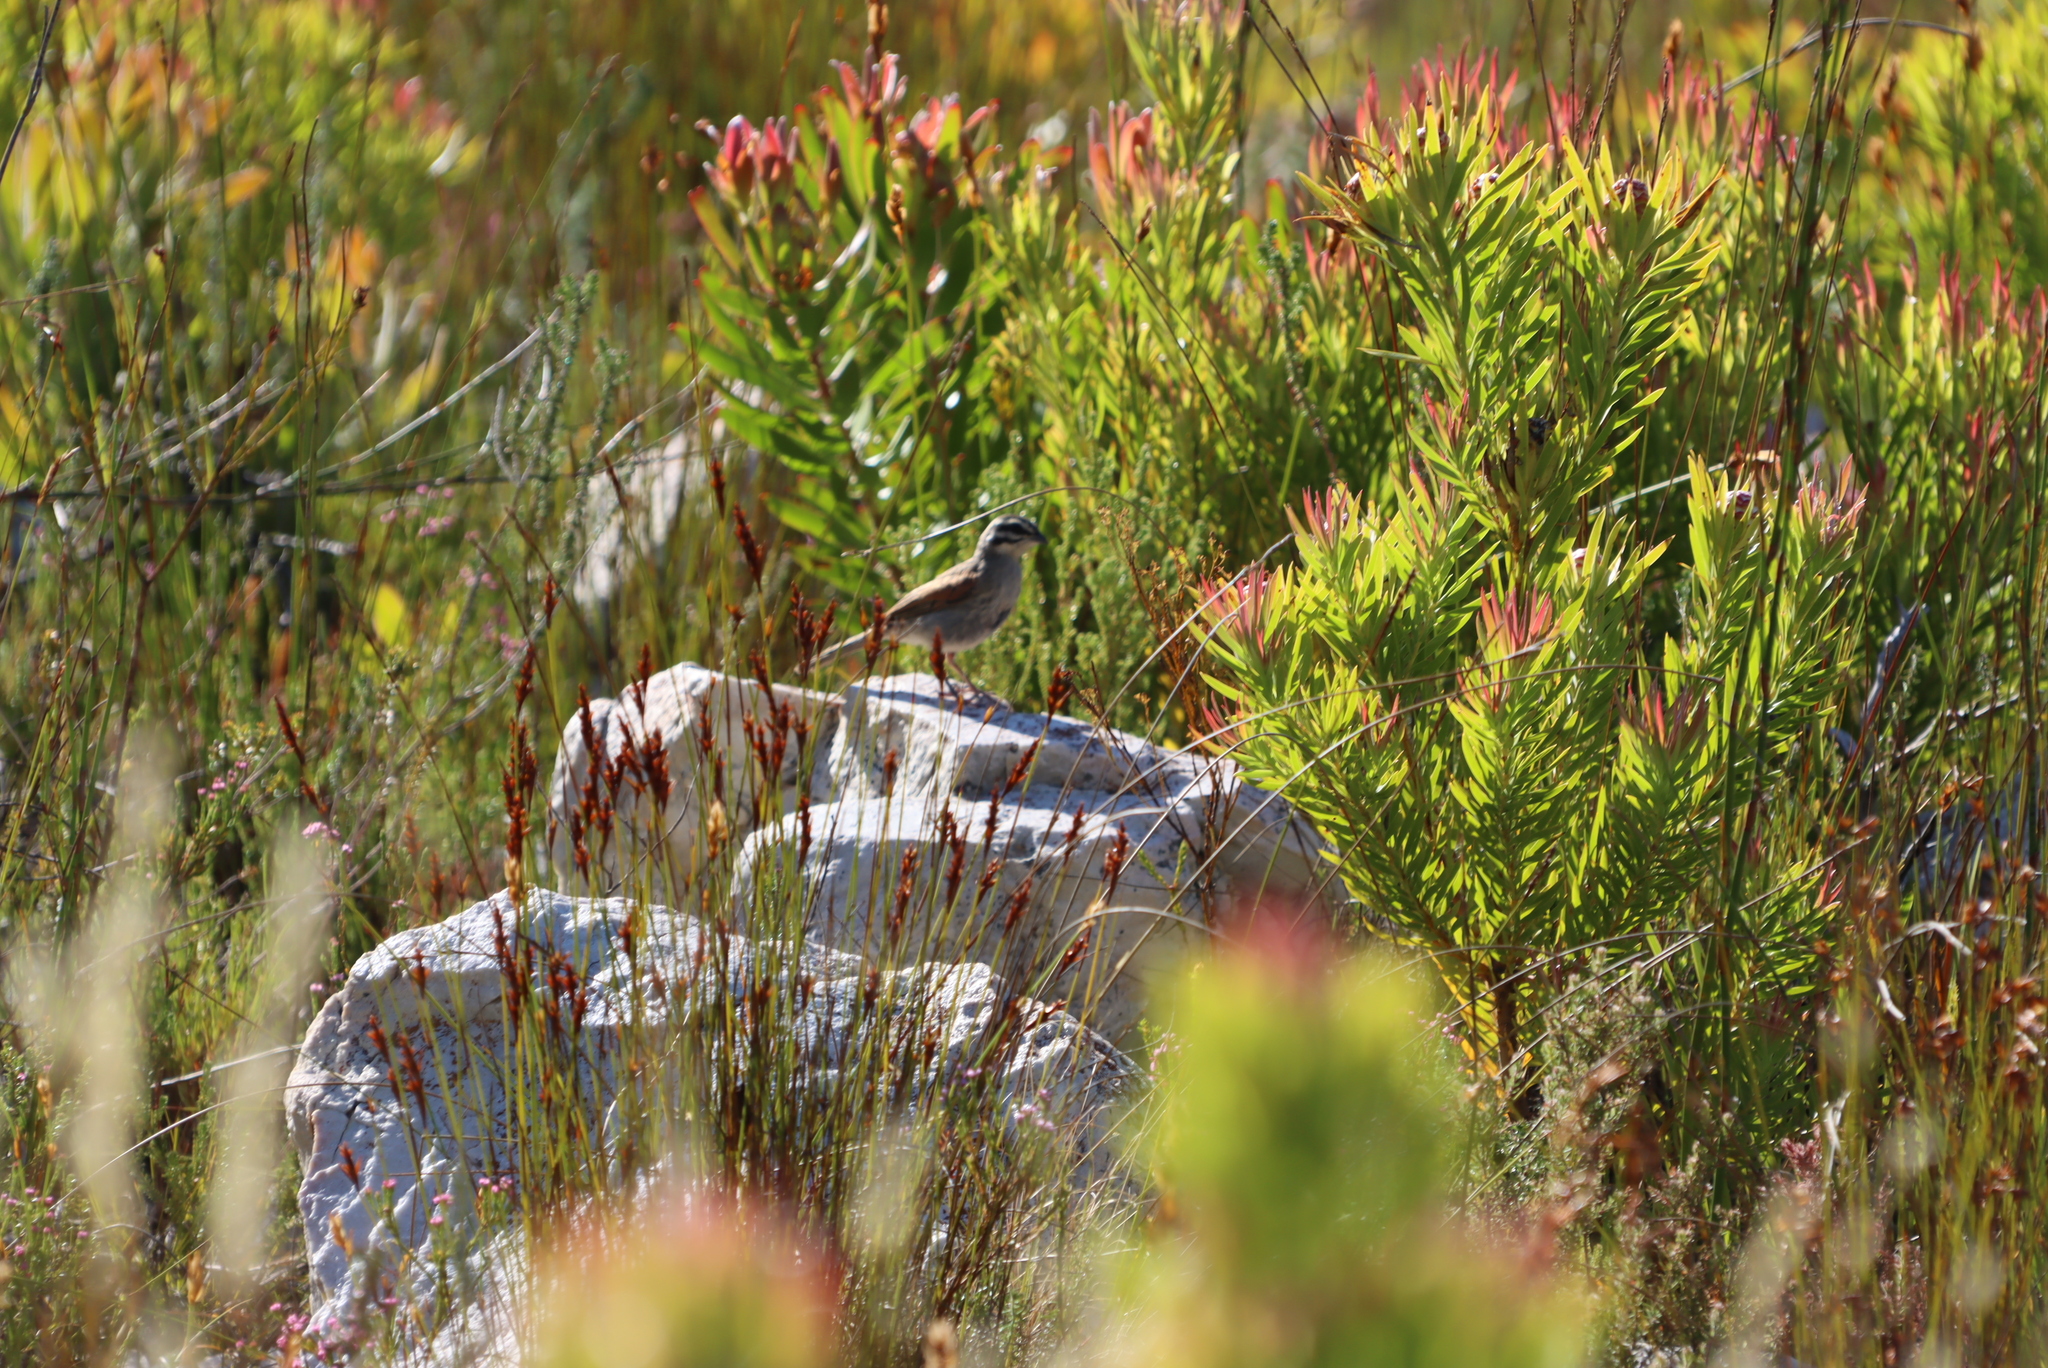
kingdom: Plantae
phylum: Tracheophyta
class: Magnoliopsida
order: Proteales
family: Proteaceae
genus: Leucadendron
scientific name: Leucadendron xanthoconus
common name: Sickle-leaf conebush
